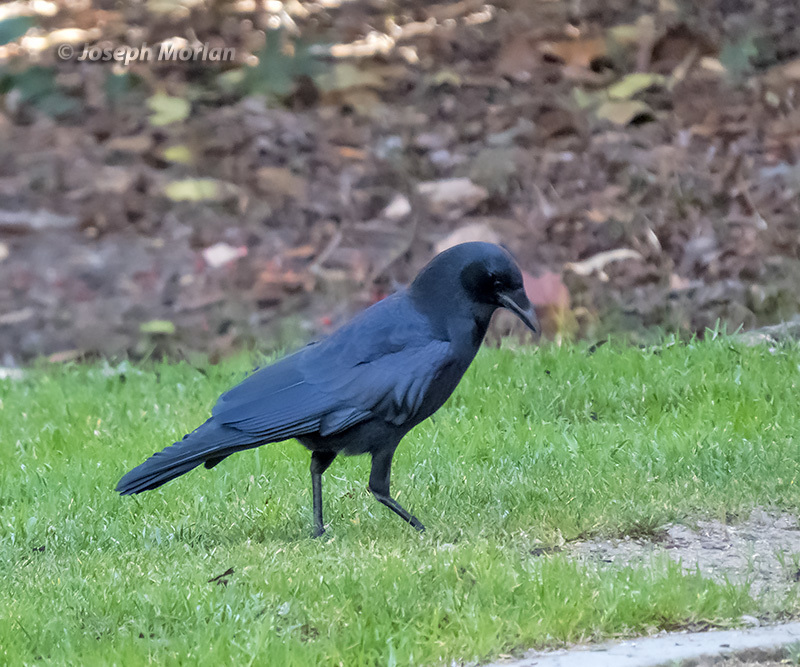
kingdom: Animalia
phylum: Chordata
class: Aves
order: Passeriformes
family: Corvidae
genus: Corvus
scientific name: Corvus brachyrhynchos
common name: American crow
